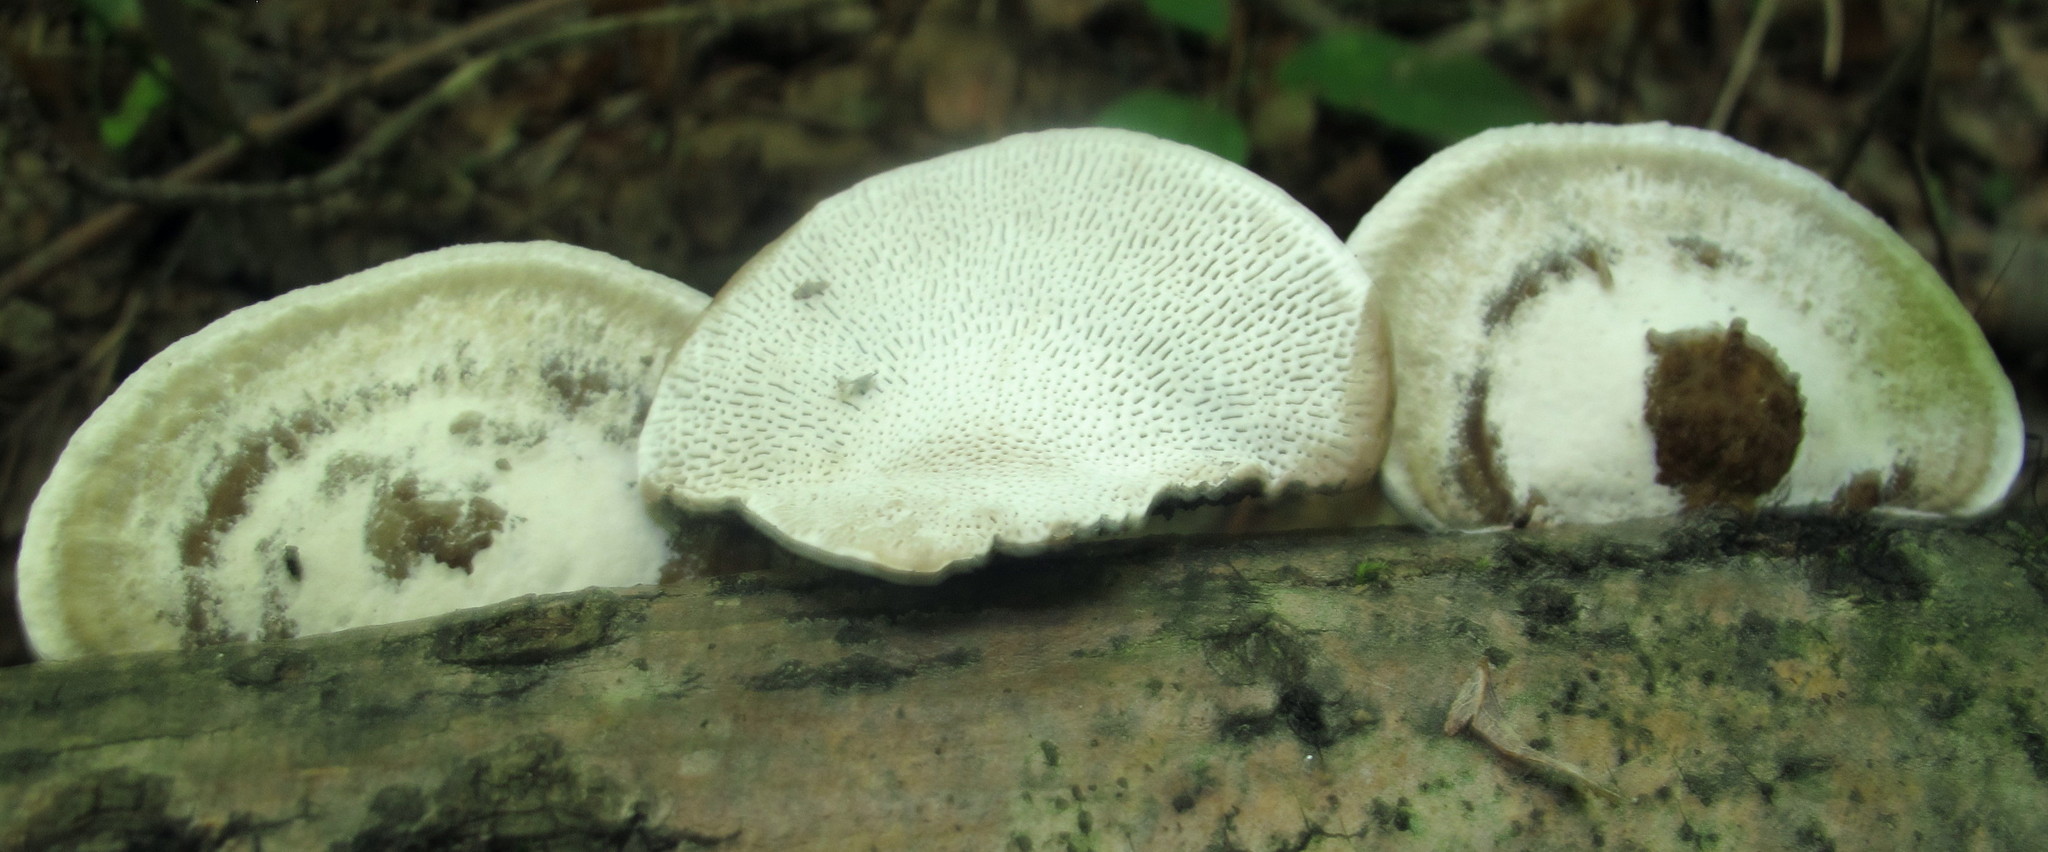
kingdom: Fungi
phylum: Basidiomycota
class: Agaricomycetes
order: Polyporales
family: Polyporaceae
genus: Trametes
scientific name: Trametes gibbosa
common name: Lumpy bracket
